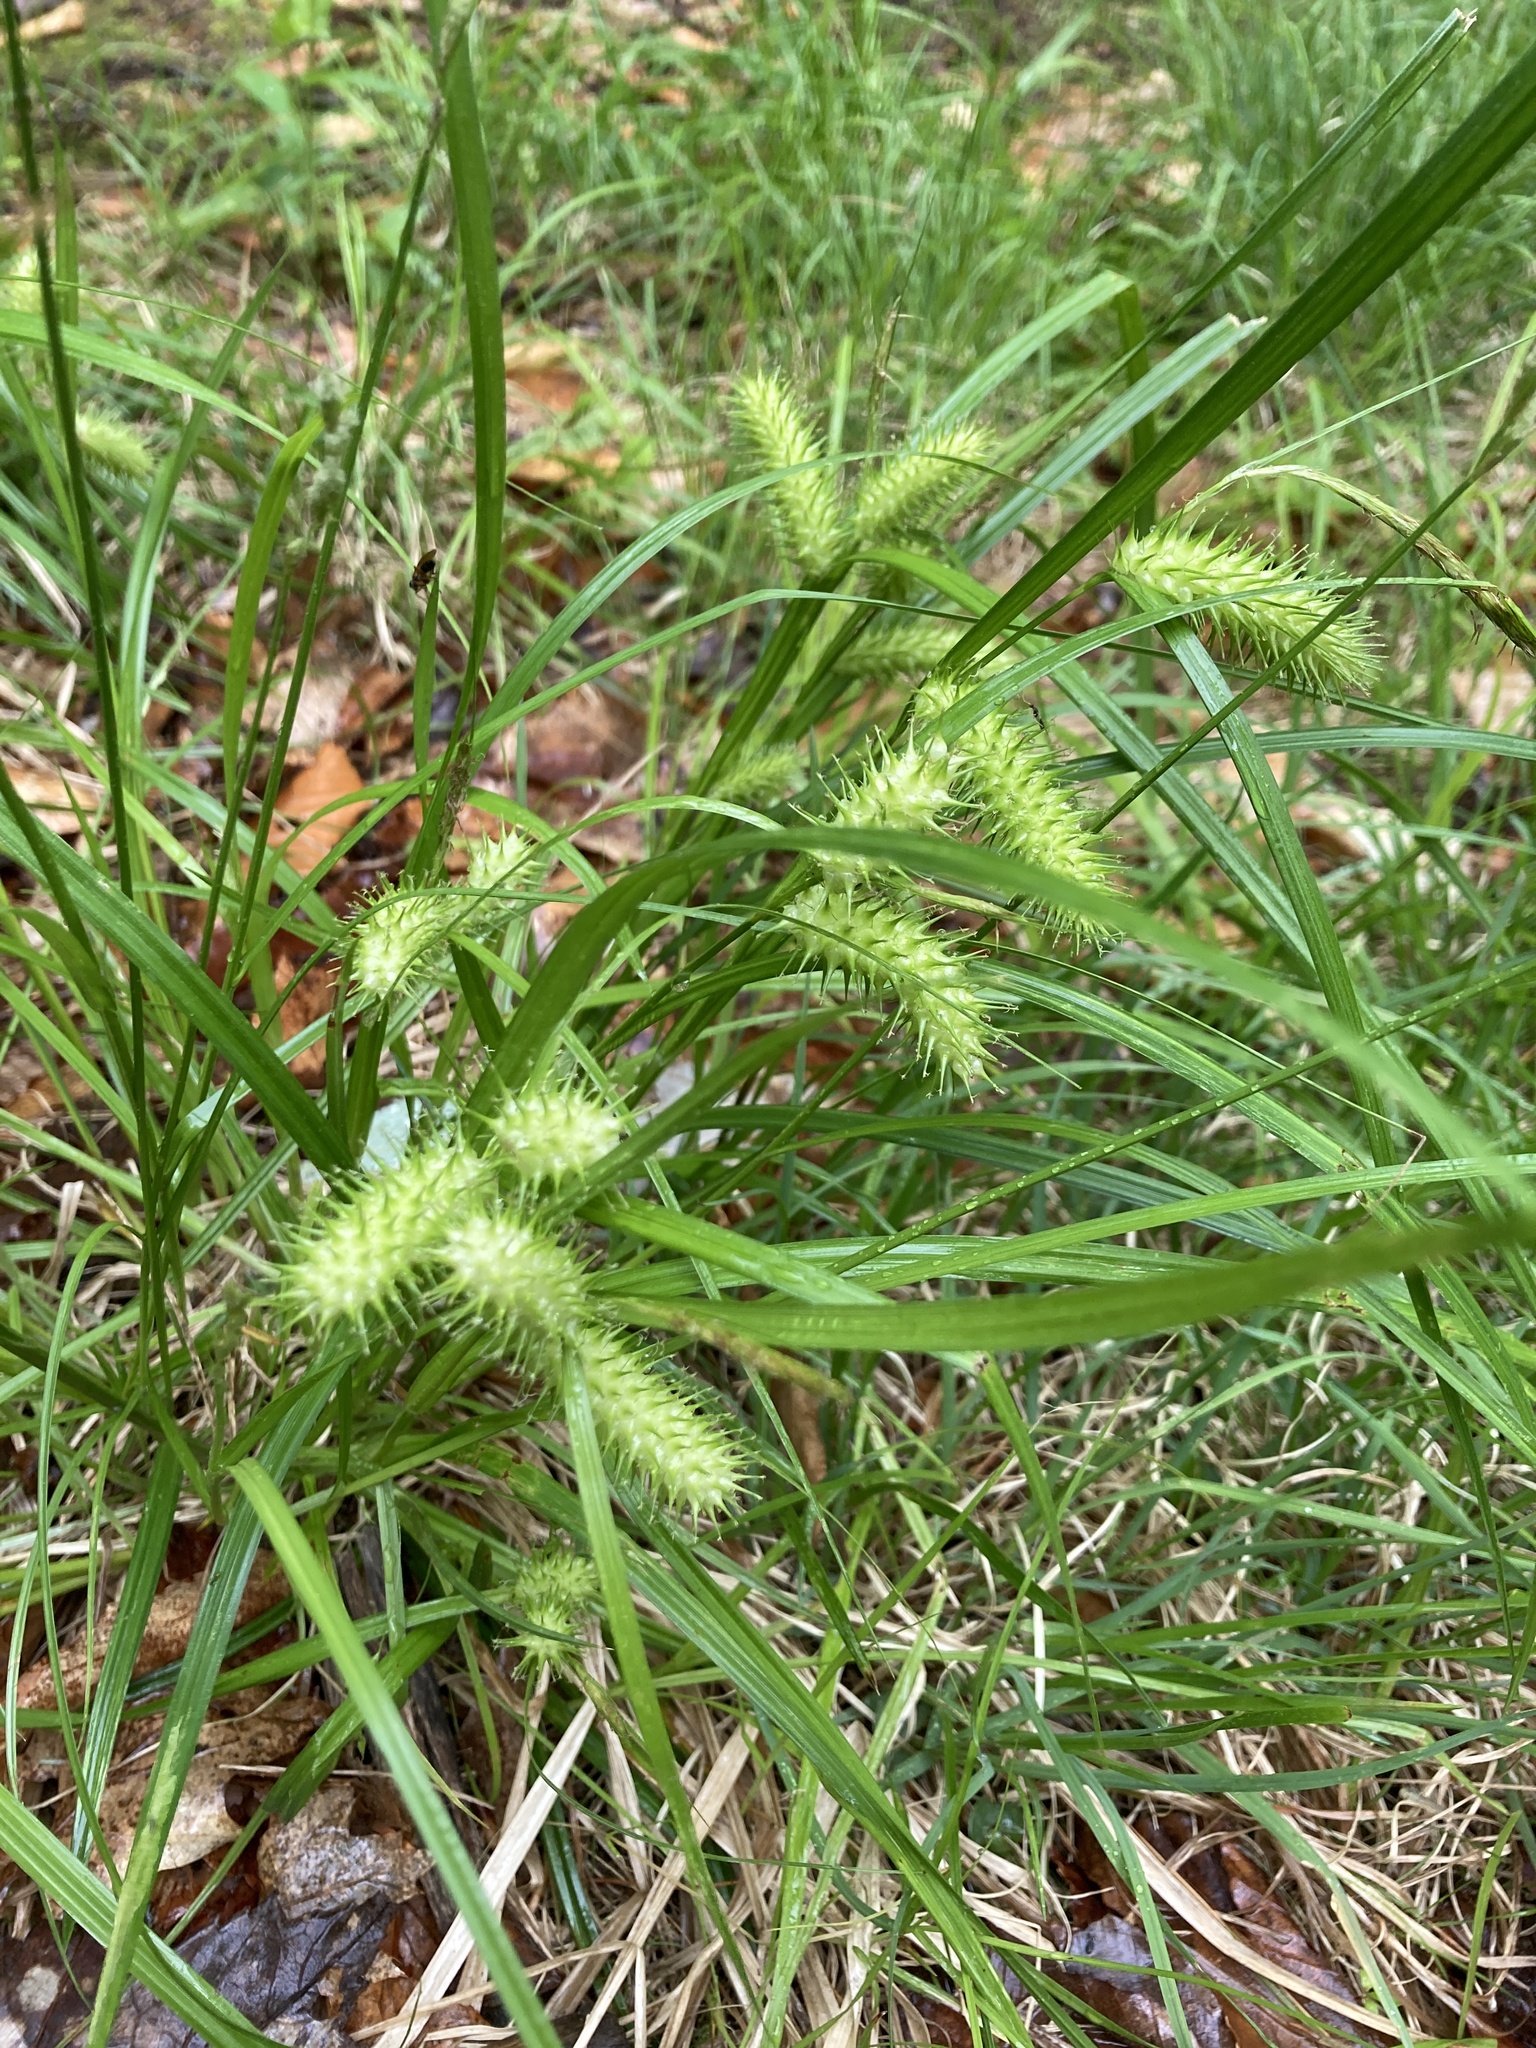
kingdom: Plantae
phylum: Tracheophyta
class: Liliopsida
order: Poales
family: Cyperaceae
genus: Carex
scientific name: Carex lurida
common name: Sallow sedge
